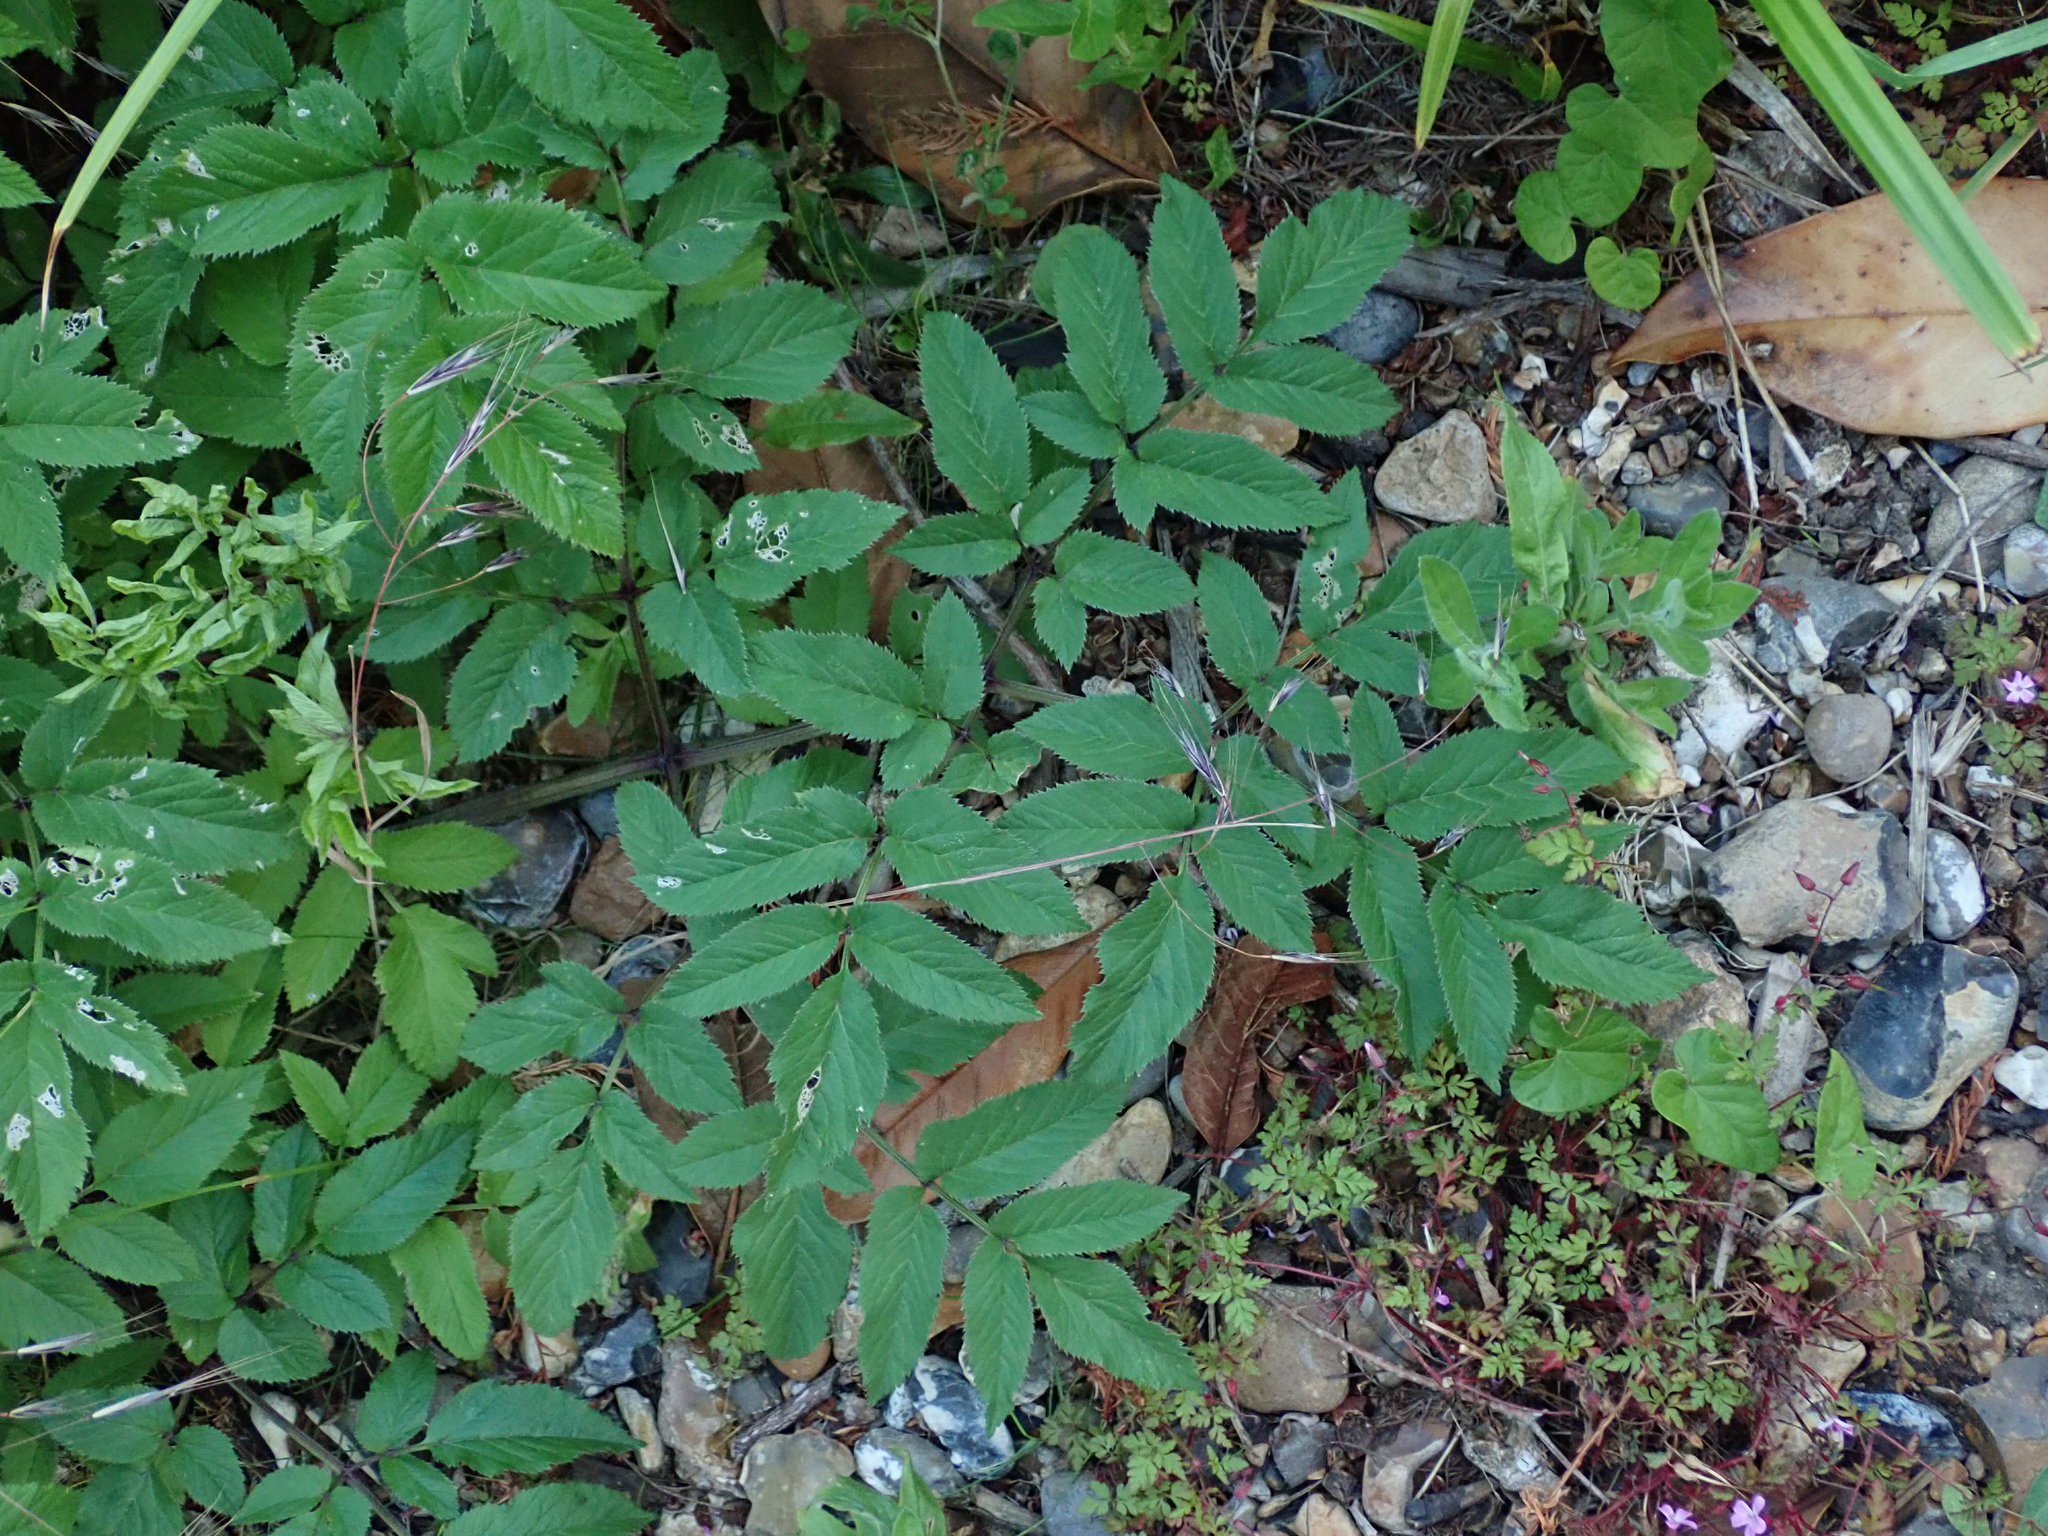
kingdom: Plantae
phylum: Tracheophyta
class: Magnoliopsida
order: Apiales
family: Apiaceae
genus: Angelica
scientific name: Angelica sylvestris
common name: Wild angelica
